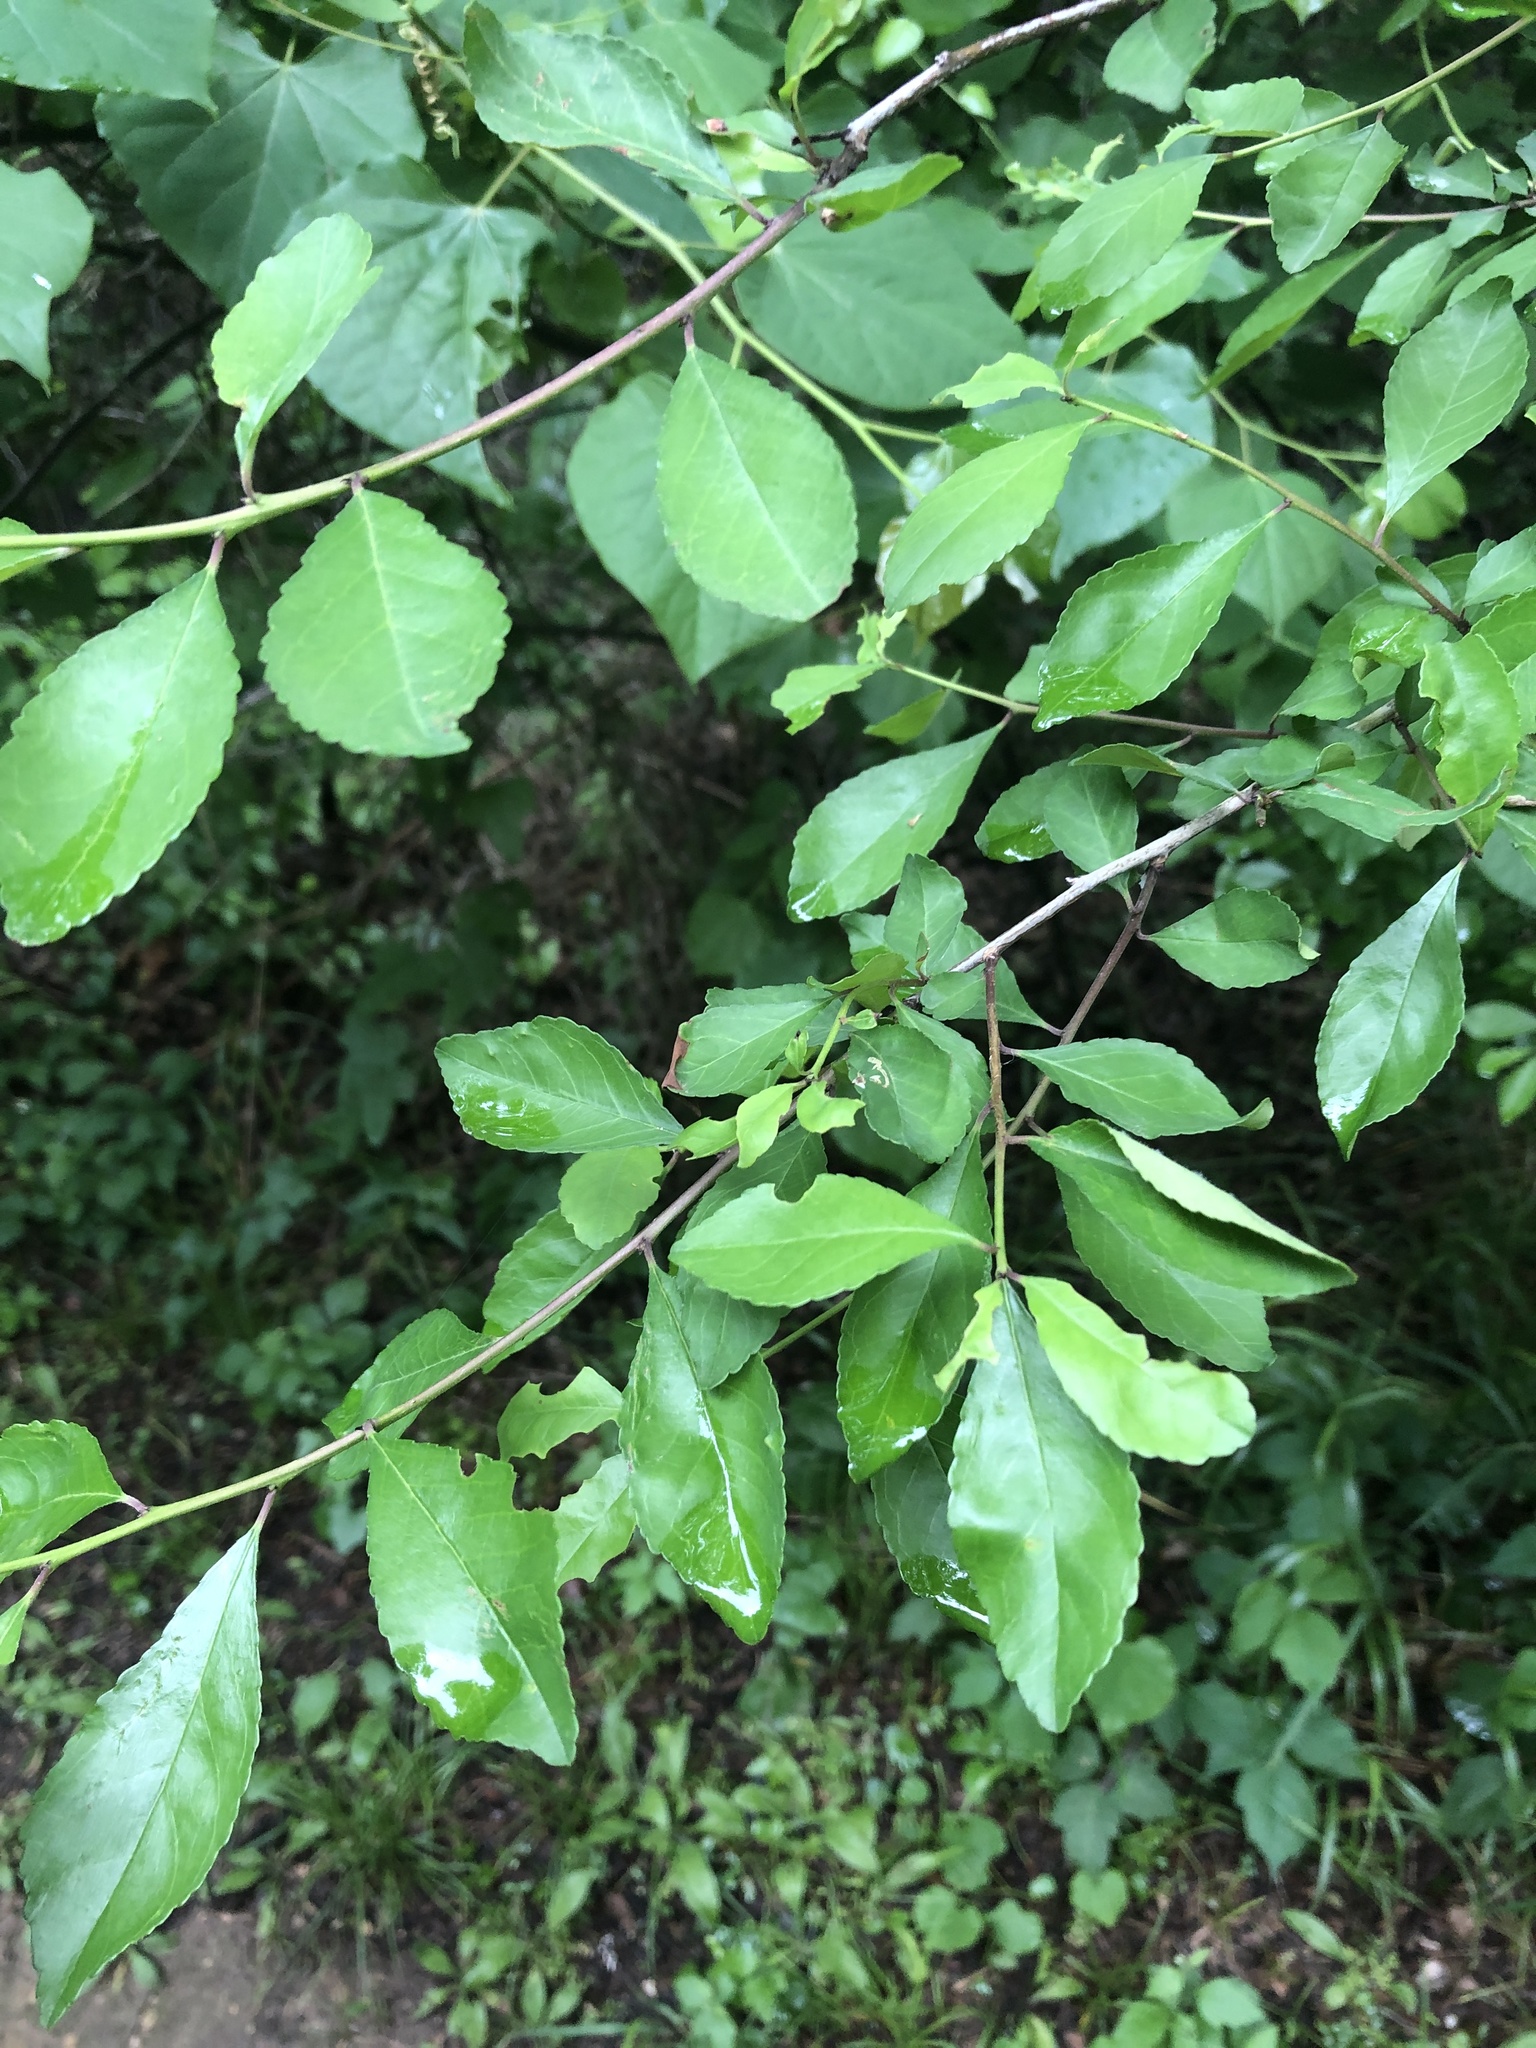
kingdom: Plantae
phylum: Tracheophyta
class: Magnoliopsida
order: Aquifoliales
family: Aquifoliaceae
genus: Ilex
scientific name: Ilex decidua
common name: Possum-haw
